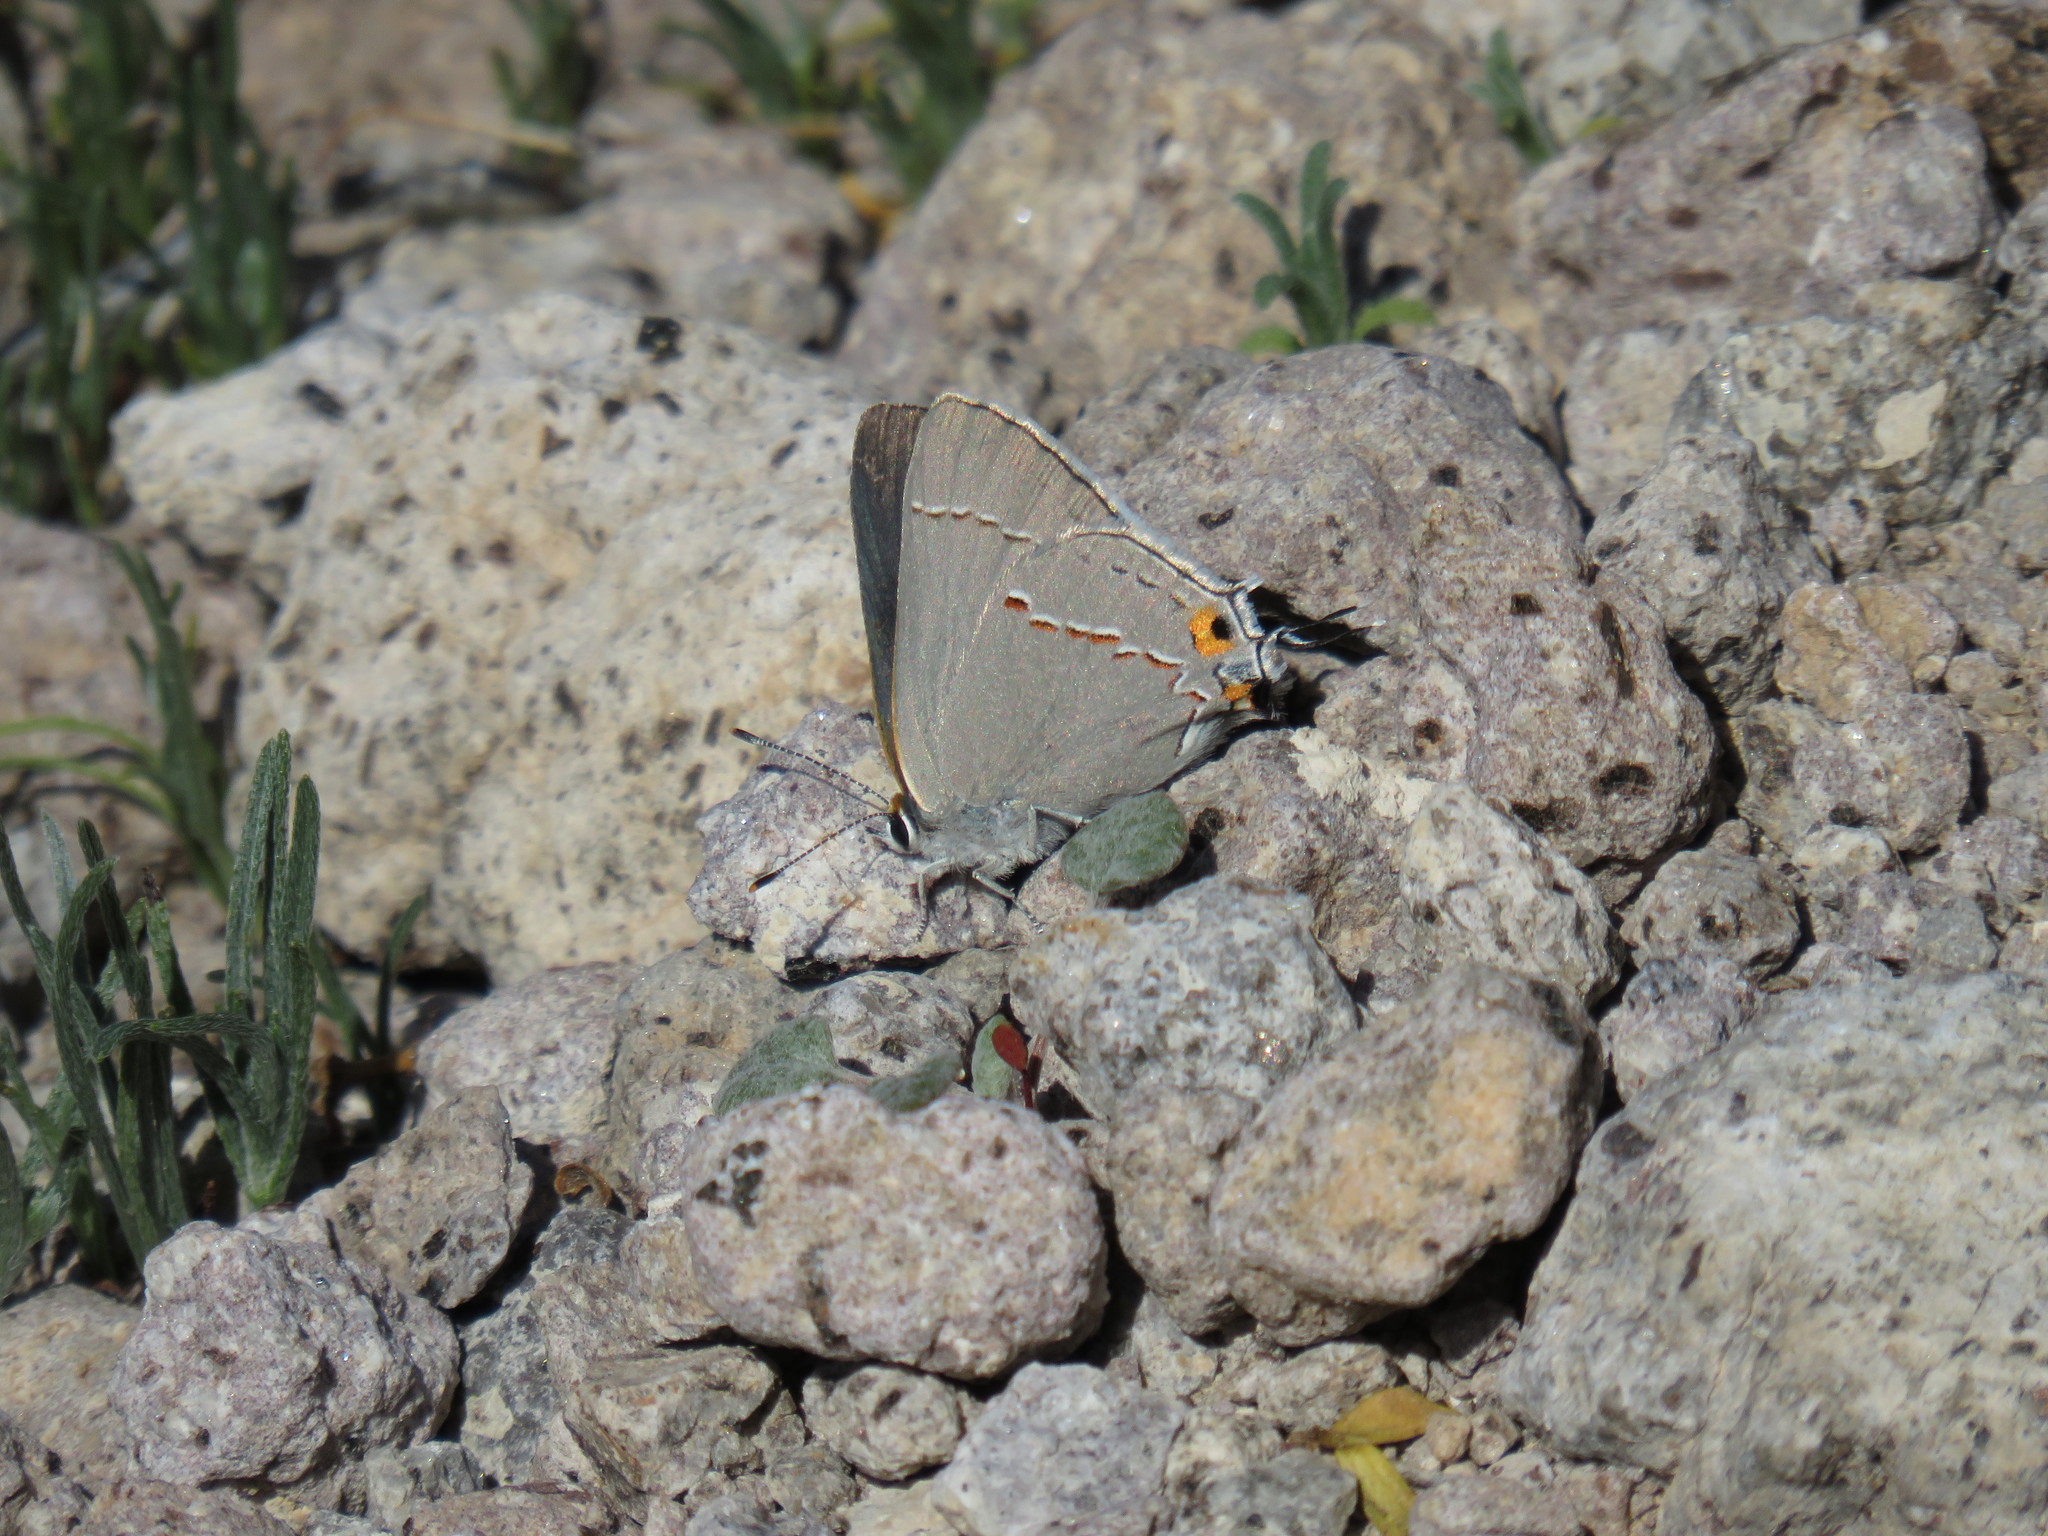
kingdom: Animalia
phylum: Arthropoda
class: Insecta
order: Lepidoptera
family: Lycaenidae
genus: Strymon
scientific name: Strymon melinus
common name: Gray hairstreak
